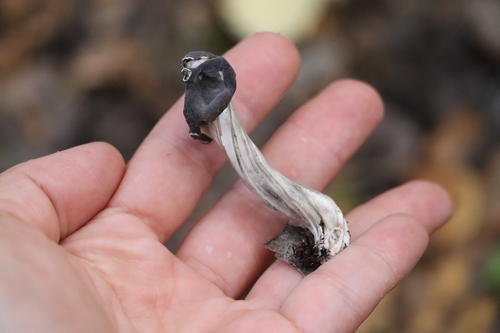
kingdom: Fungi
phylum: Ascomycota
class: Pezizomycetes
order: Pezizales
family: Helvellaceae
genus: Helvella
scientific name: Helvella lacunosa
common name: Elfin saddle
